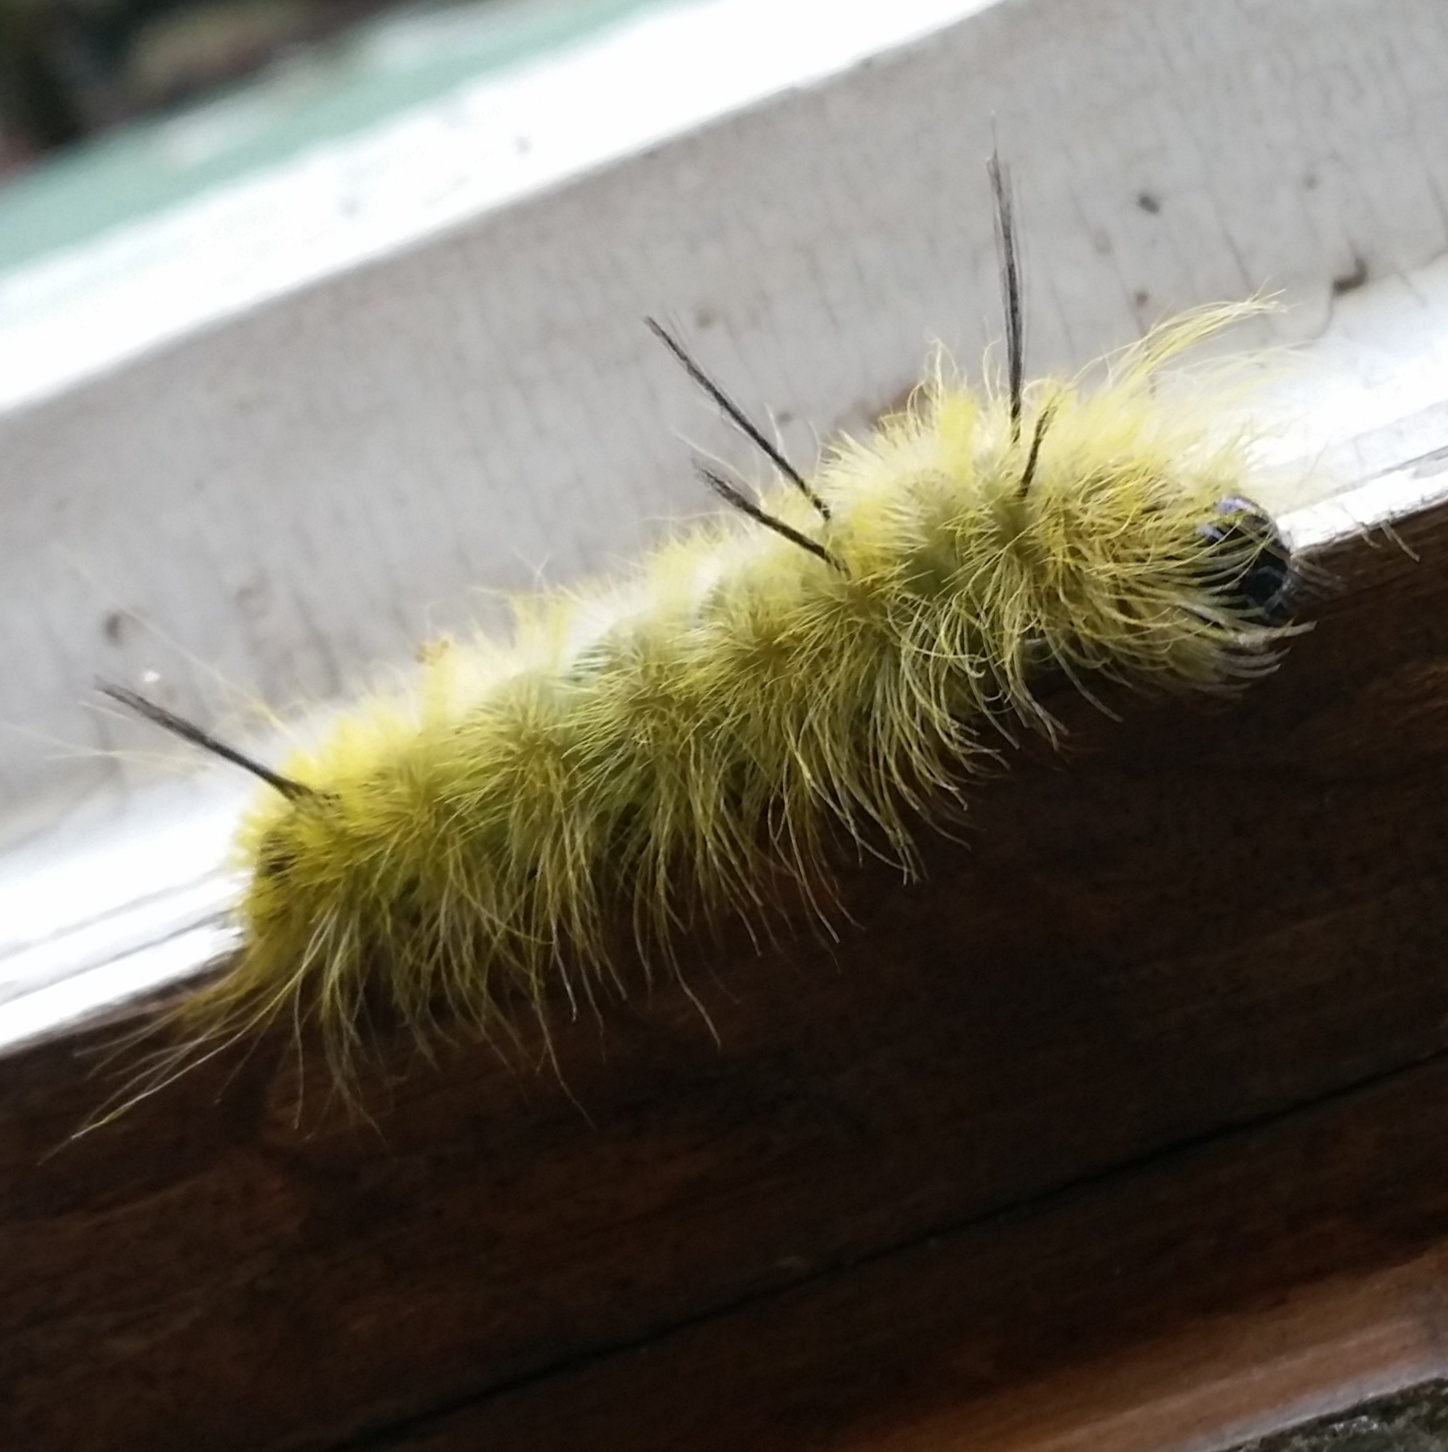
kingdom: Animalia
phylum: Arthropoda
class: Insecta
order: Lepidoptera
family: Noctuidae
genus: Acronicta
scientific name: Acronicta americana
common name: American dagger
